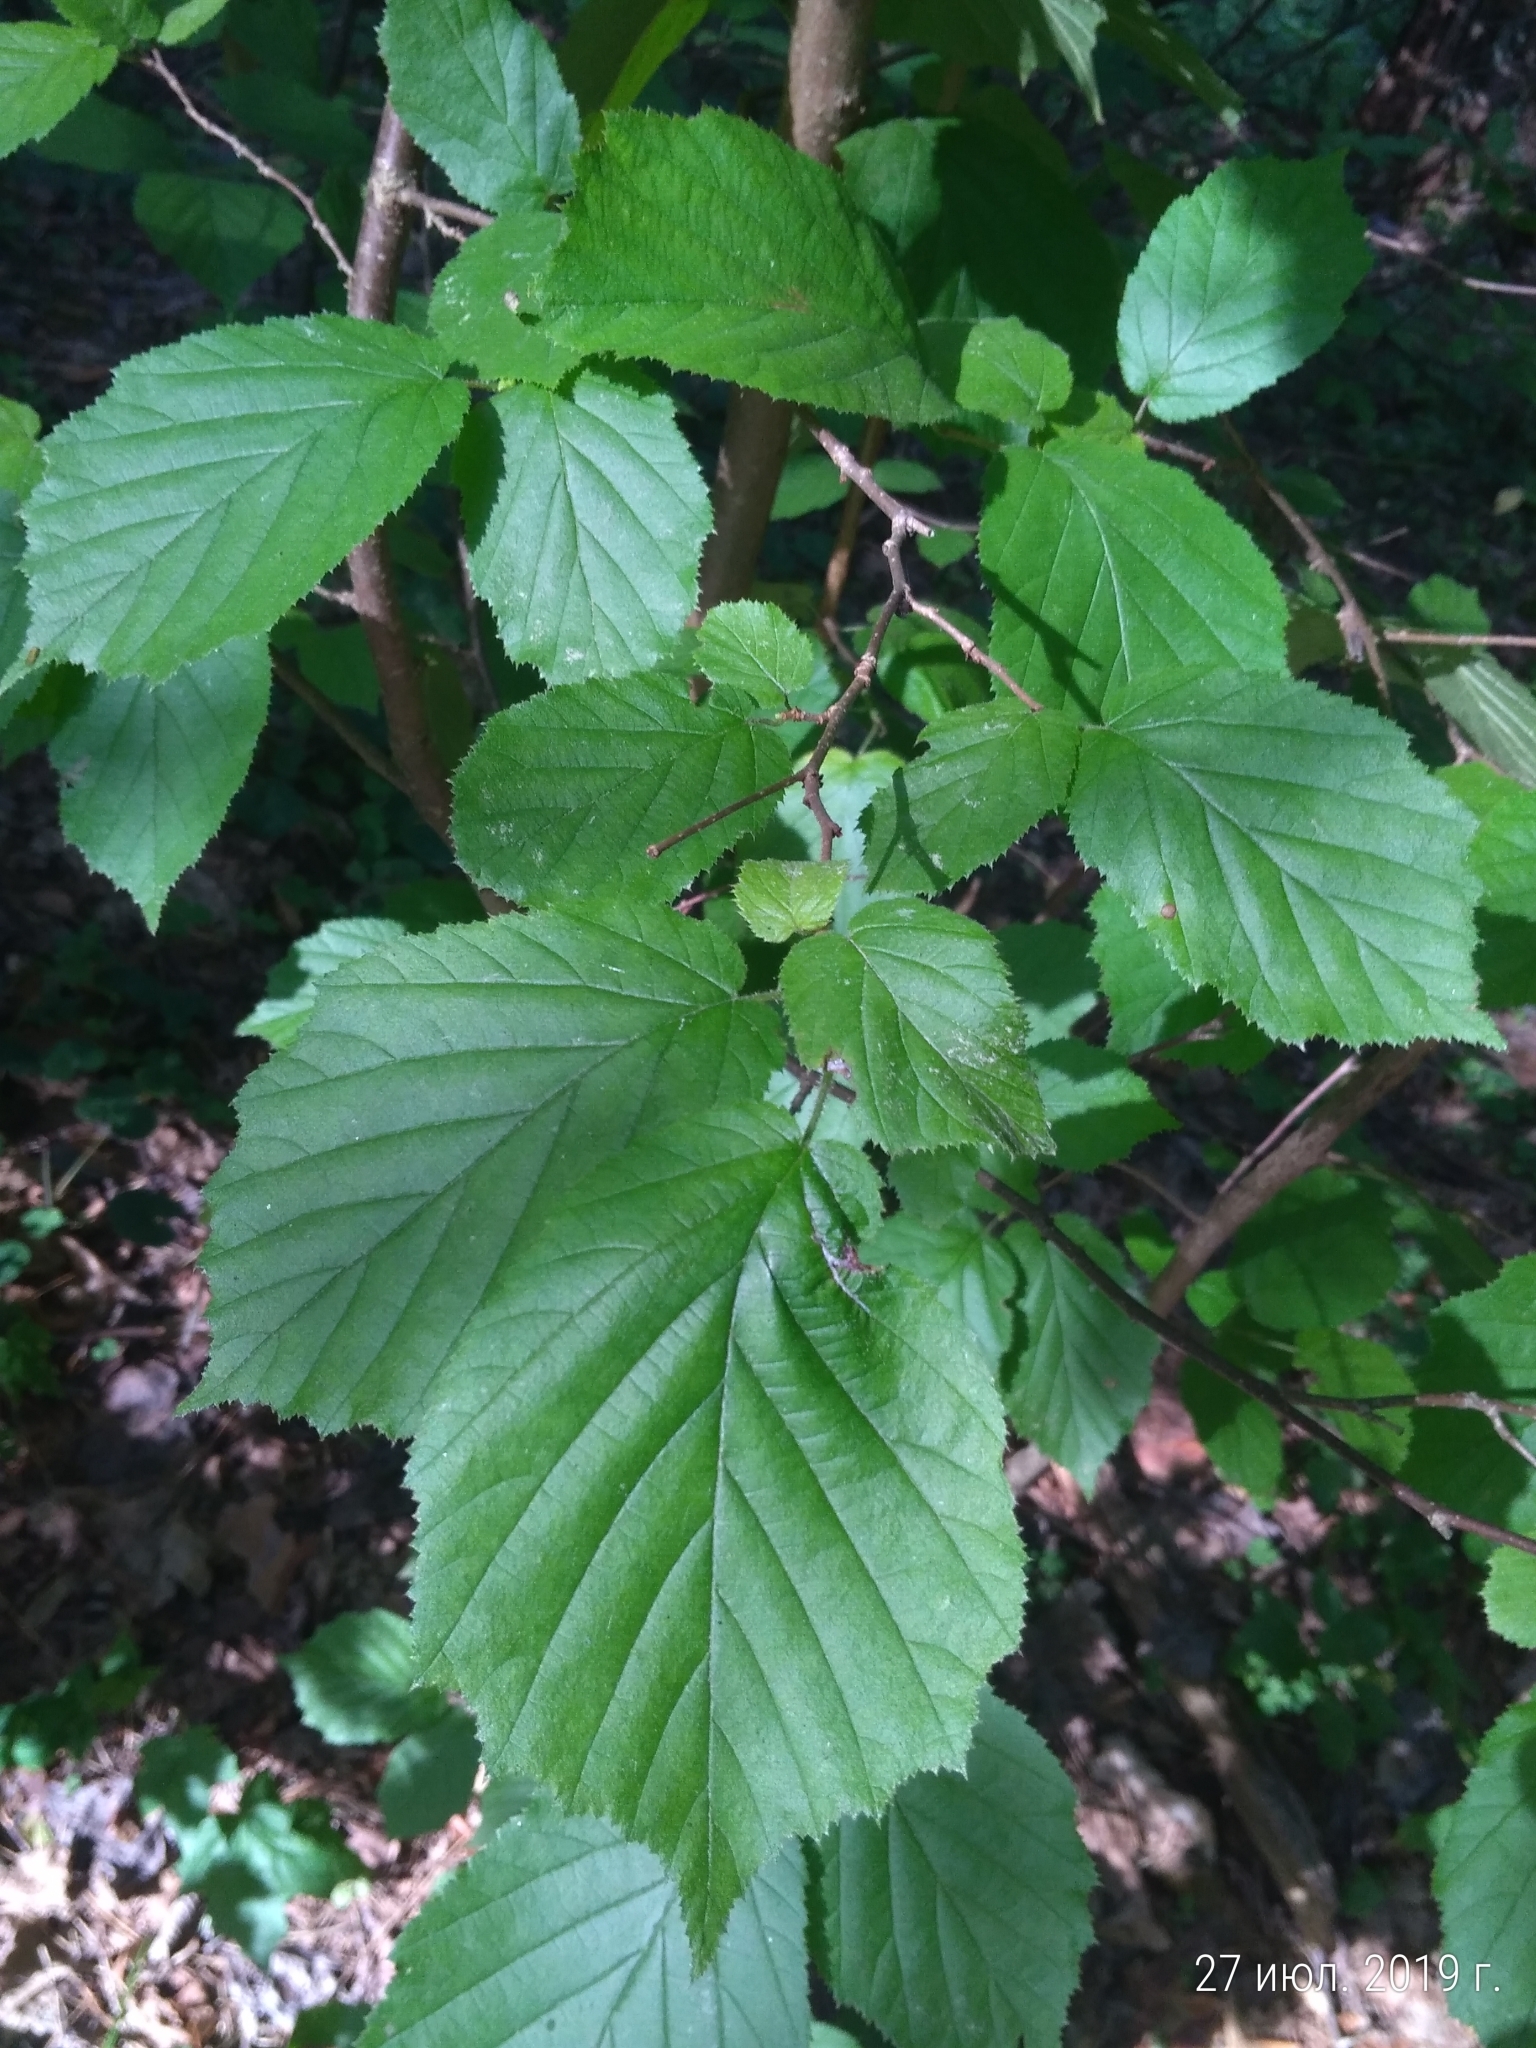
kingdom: Plantae
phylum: Tracheophyta
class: Magnoliopsida
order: Fagales
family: Betulaceae
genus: Corylus
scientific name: Corylus avellana
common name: European hazel
